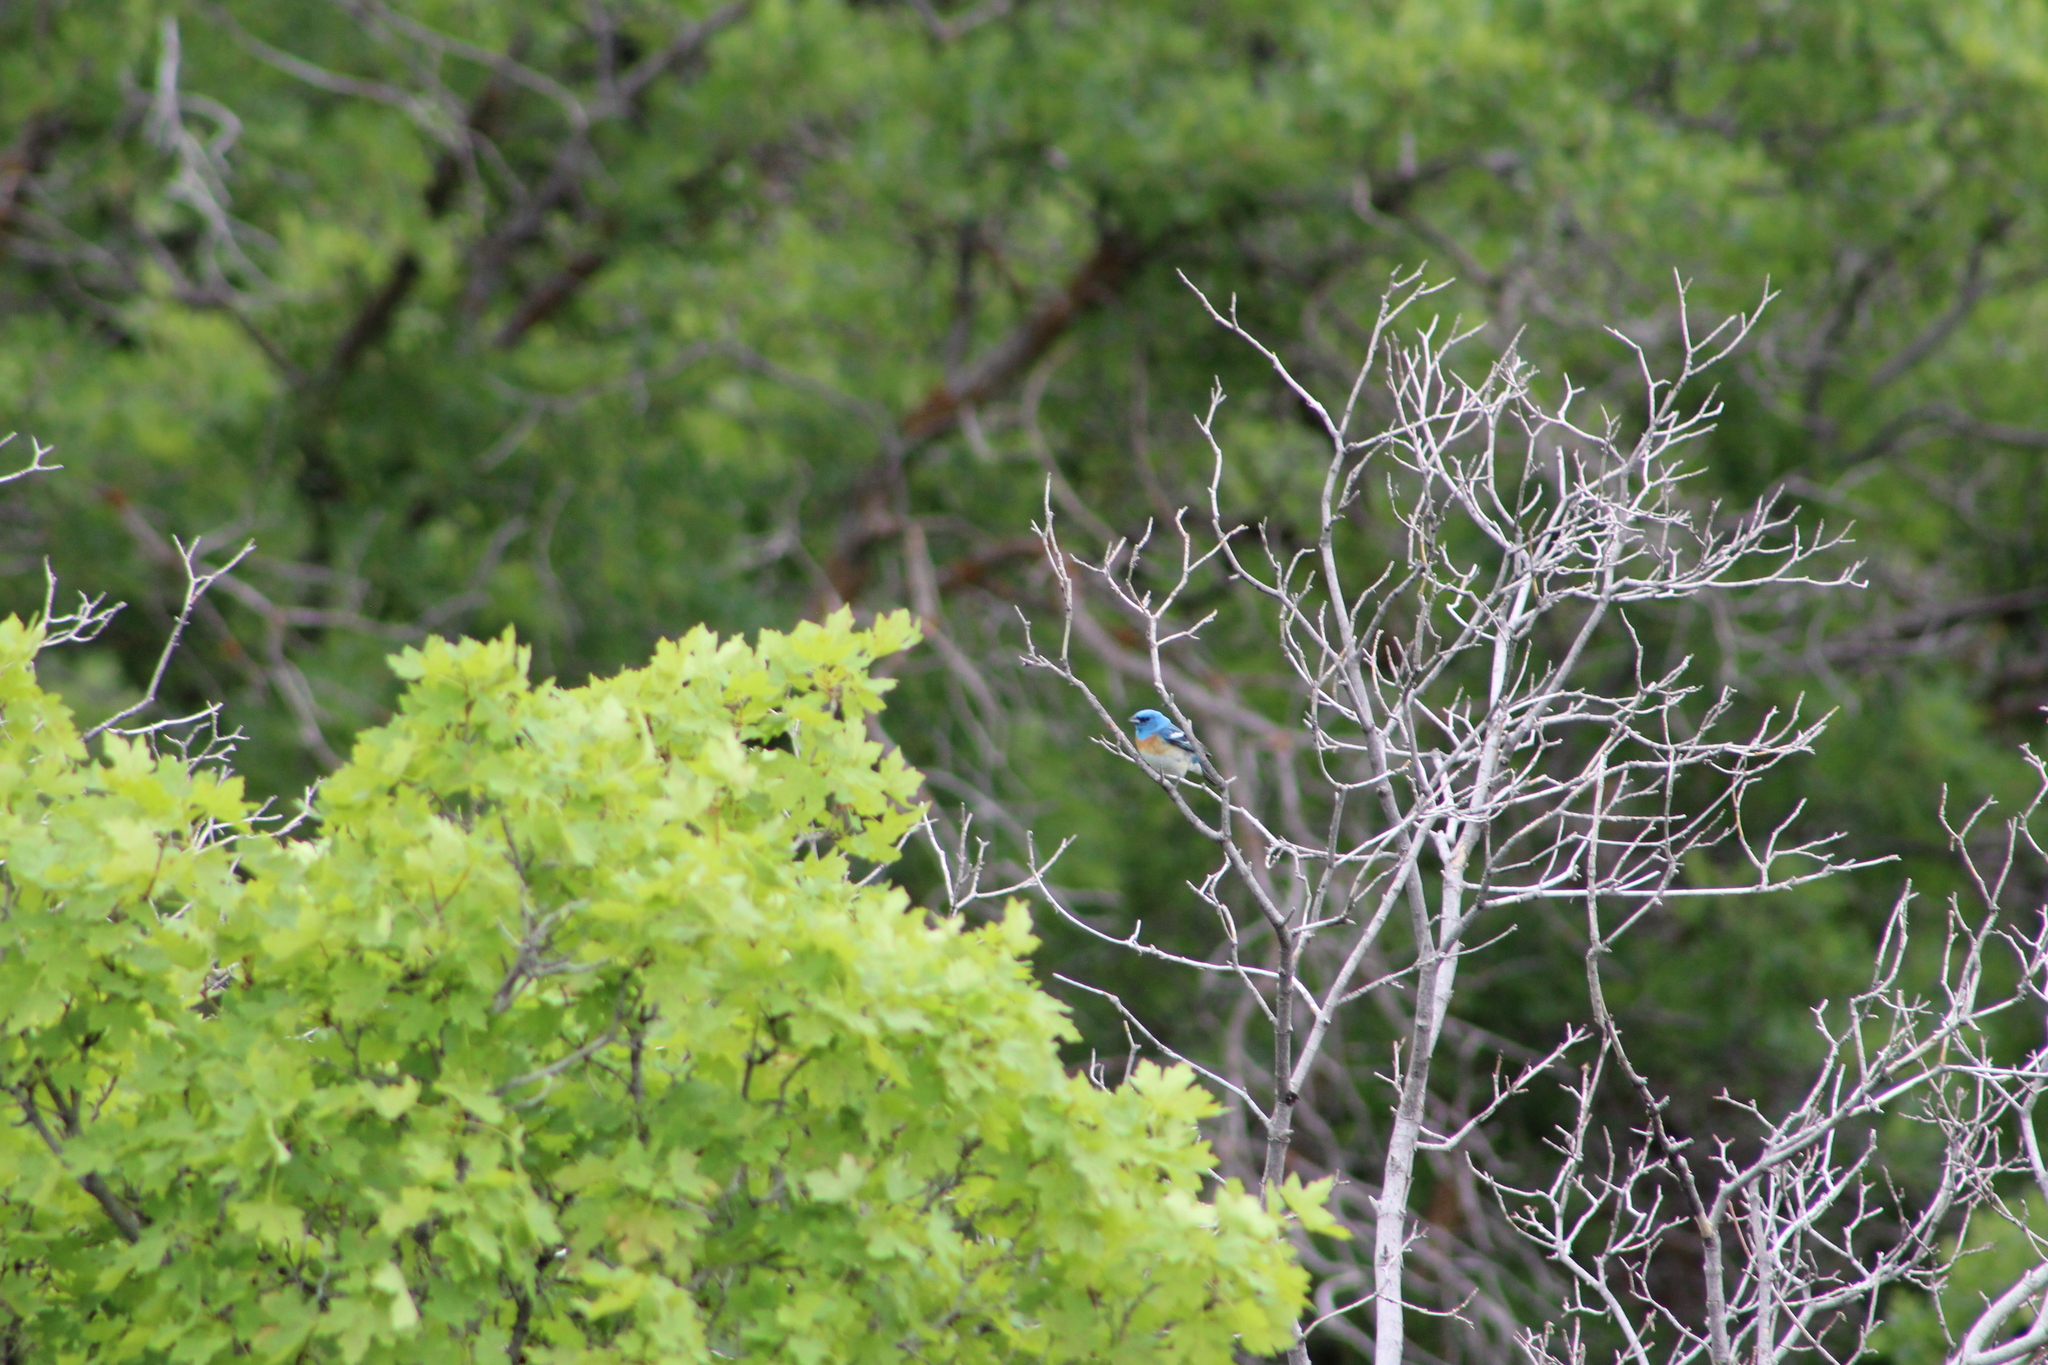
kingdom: Animalia
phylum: Chordata
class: Aves
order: Passeriformes
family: Cardinalidae
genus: Passerina
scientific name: Passerina amoena
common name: Lazuli bunting
